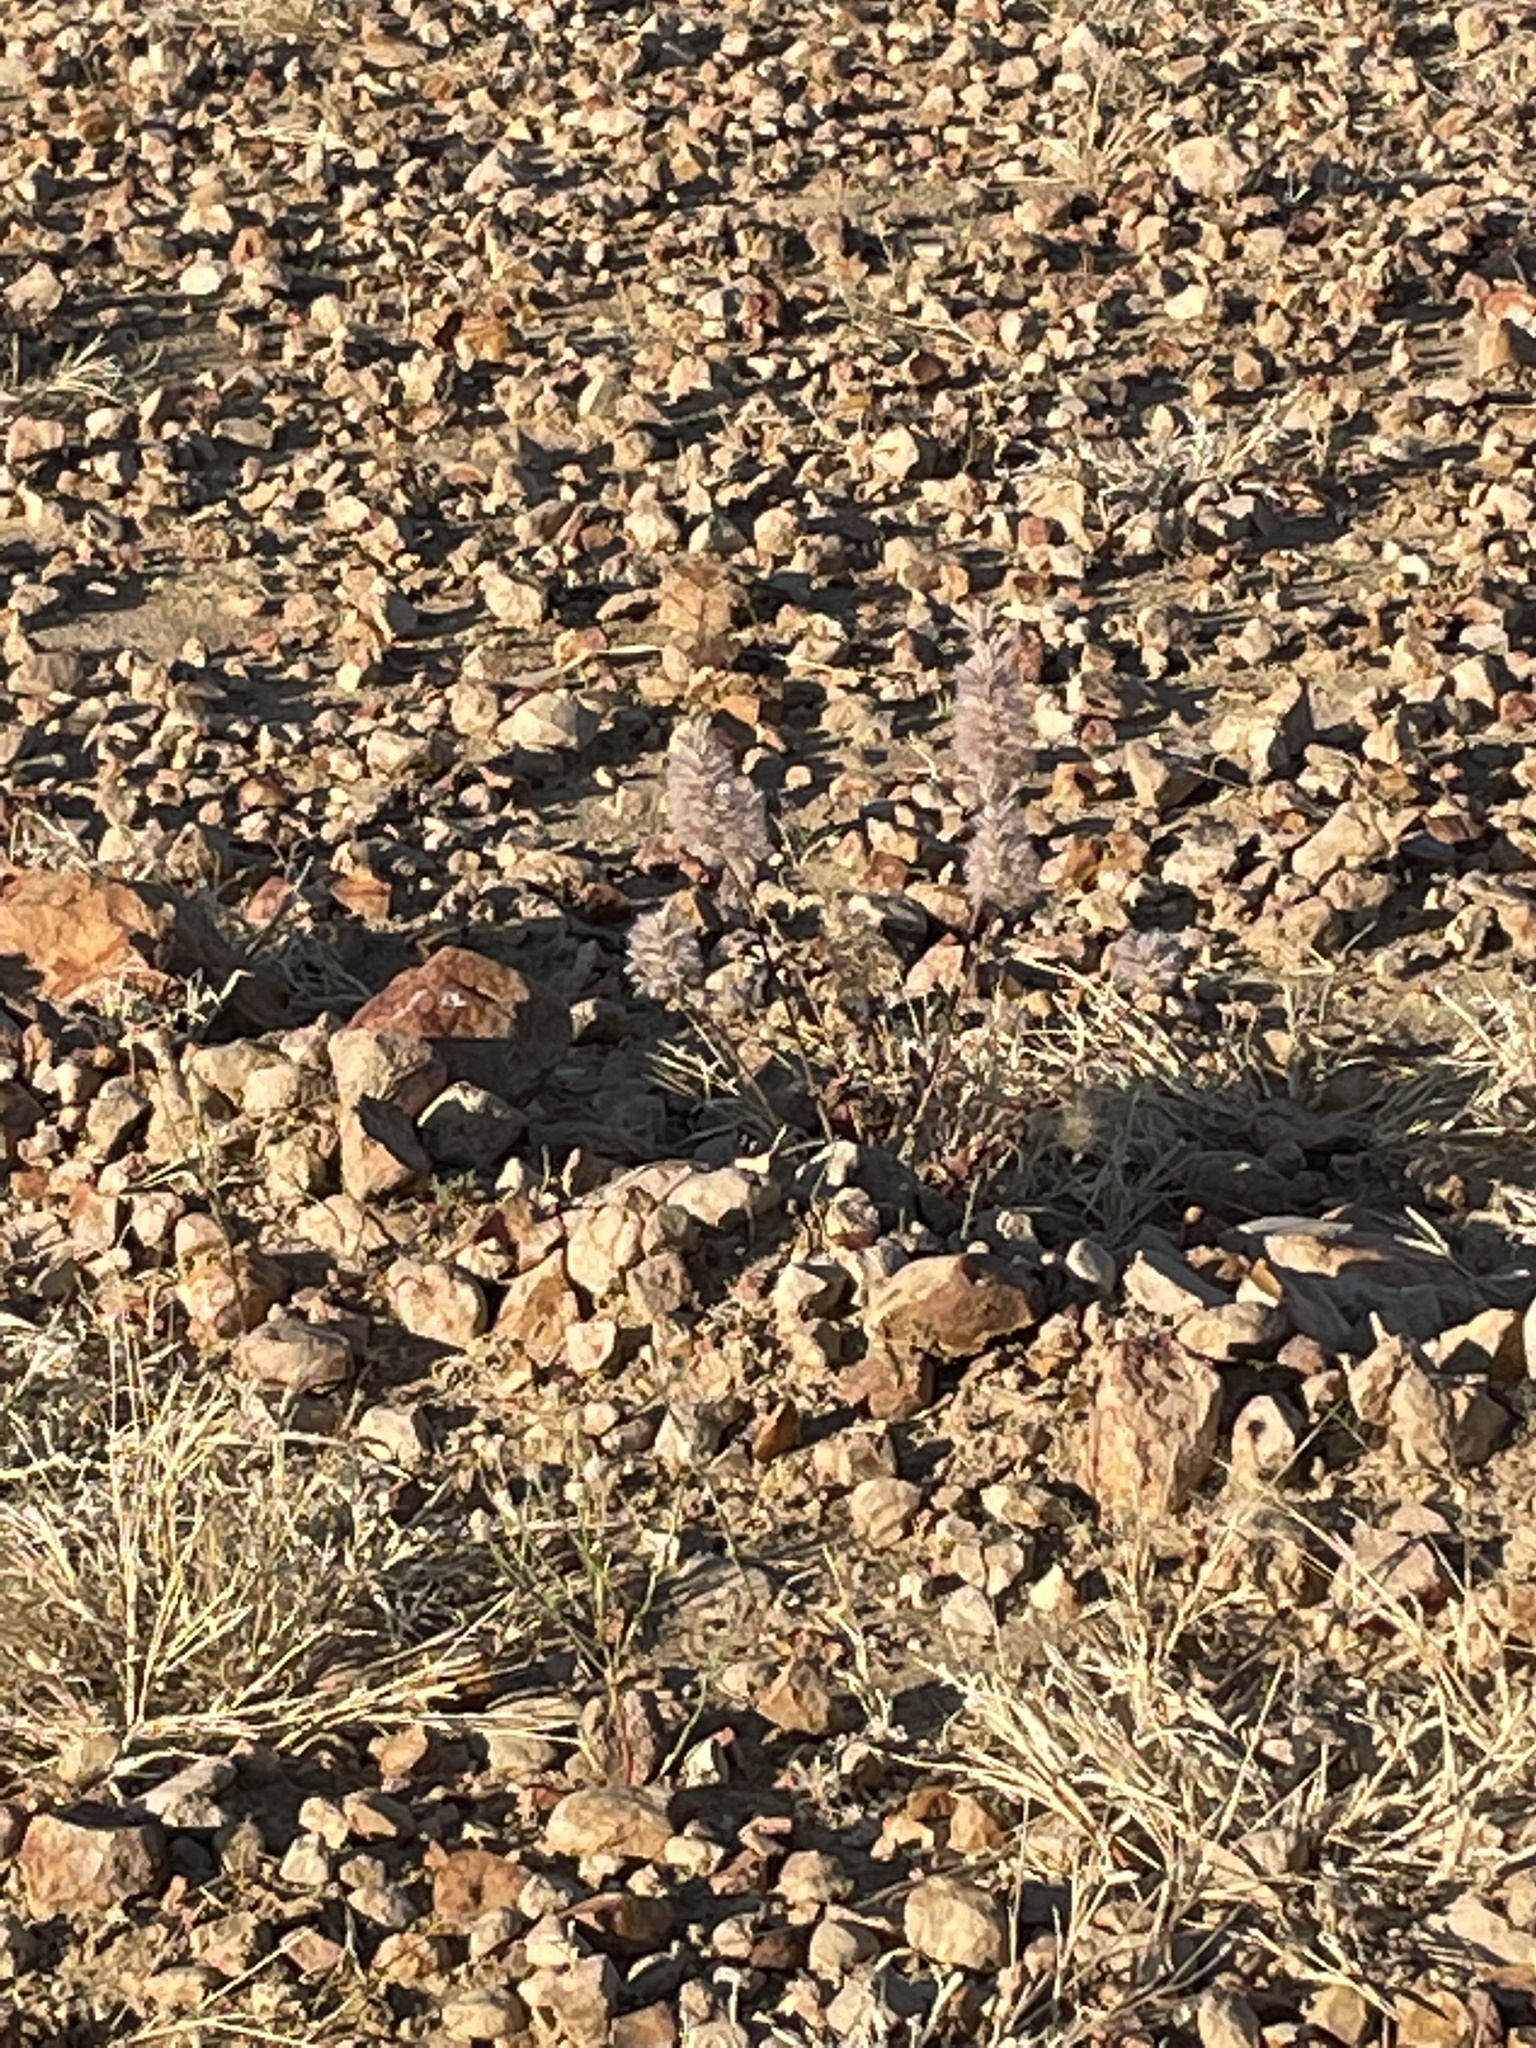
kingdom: Plantae
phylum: Tracheophyta
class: Magnoliopsida
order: Caryophyllales
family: Amaranthaceae
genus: Ptilotus
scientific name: Ptilotus exaltatus
